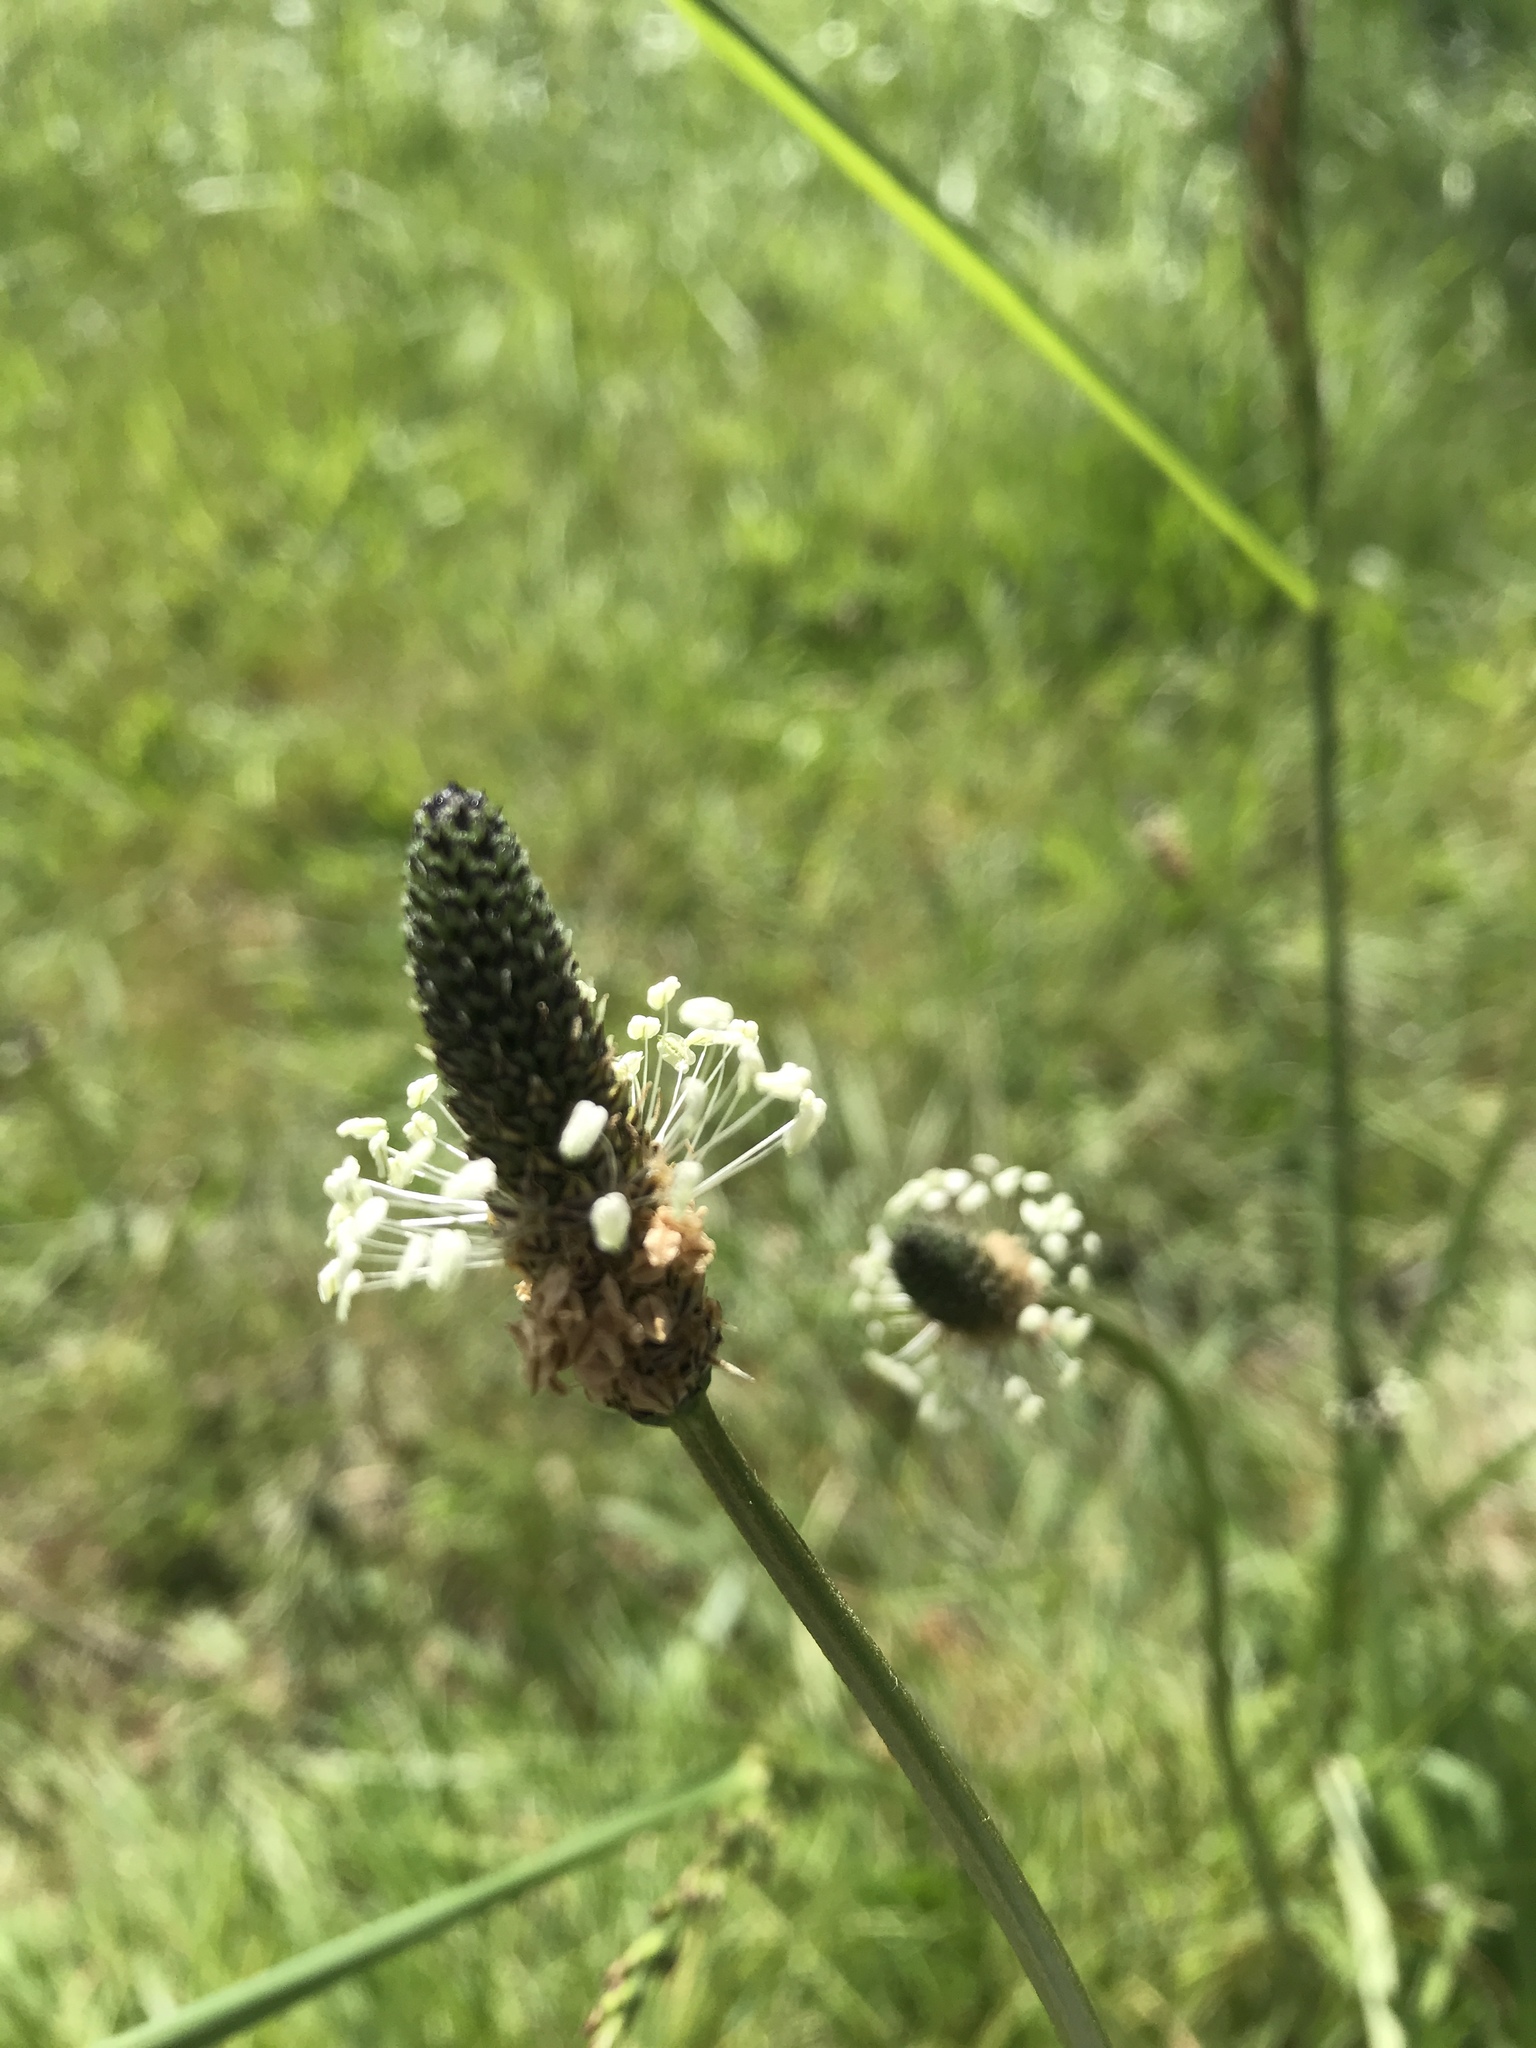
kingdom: Plantae
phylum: Tracheophyta
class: Magnoliopsida
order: Lamiales
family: Plantaginaceae
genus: Plantago
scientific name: Plantago lanceolata
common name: Ribwort plantain
